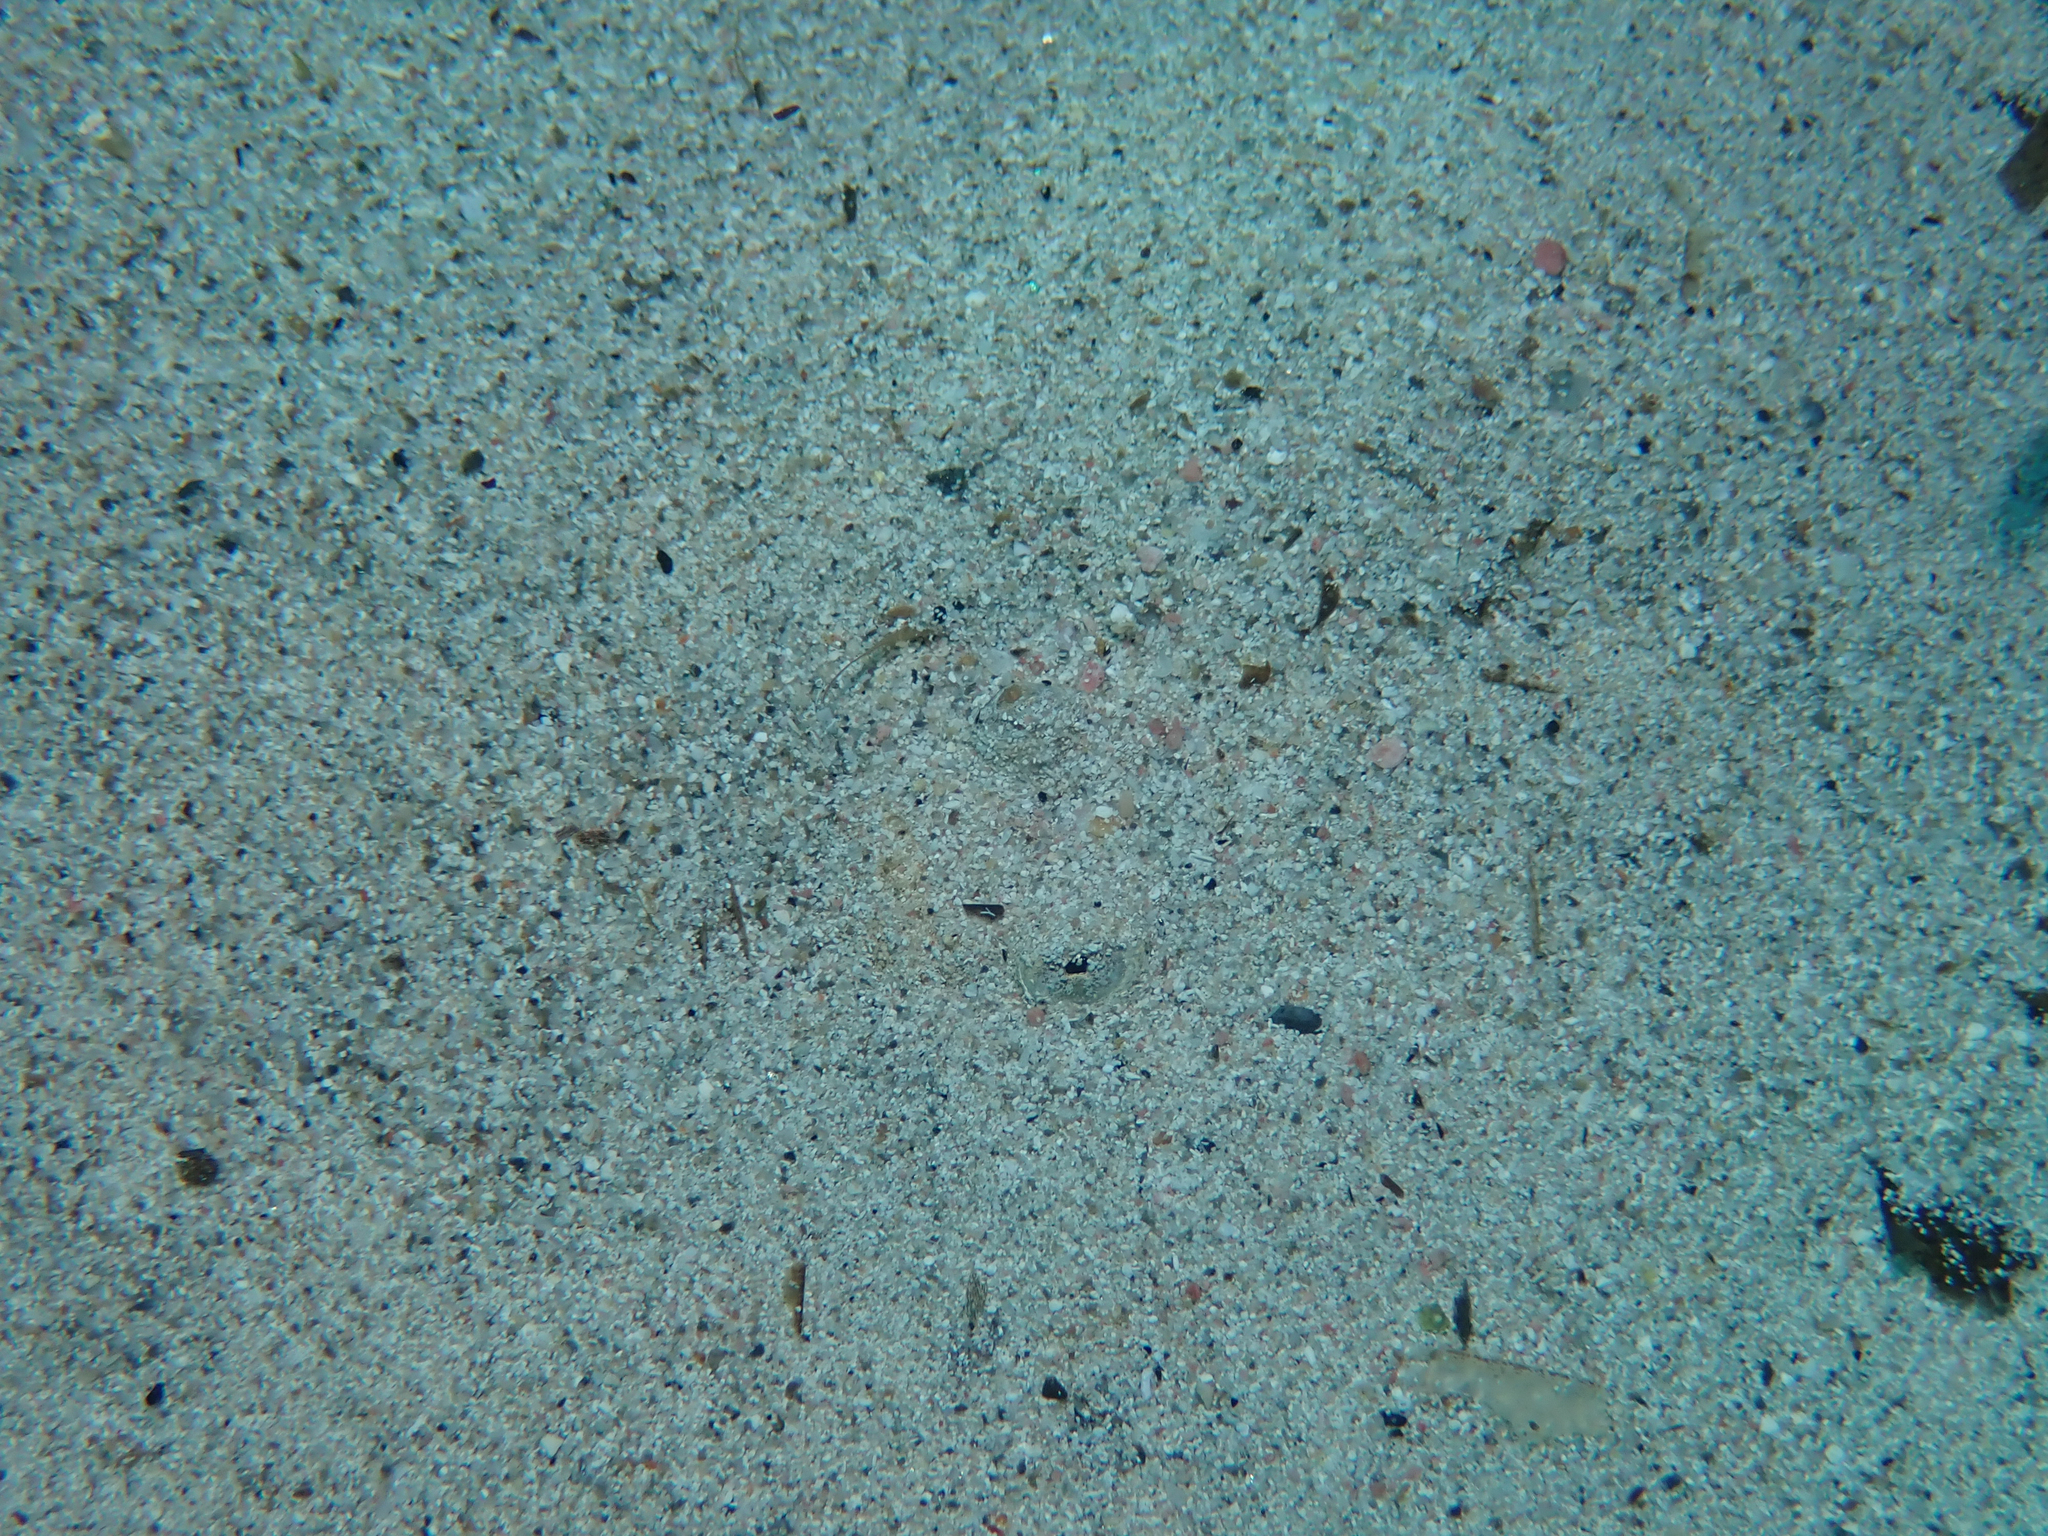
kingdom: Animalia
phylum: Chordata
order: Perciformes
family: Uranoscopidae
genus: Uranoscopus
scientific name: Uranoscopus scaber
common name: Stargazer
